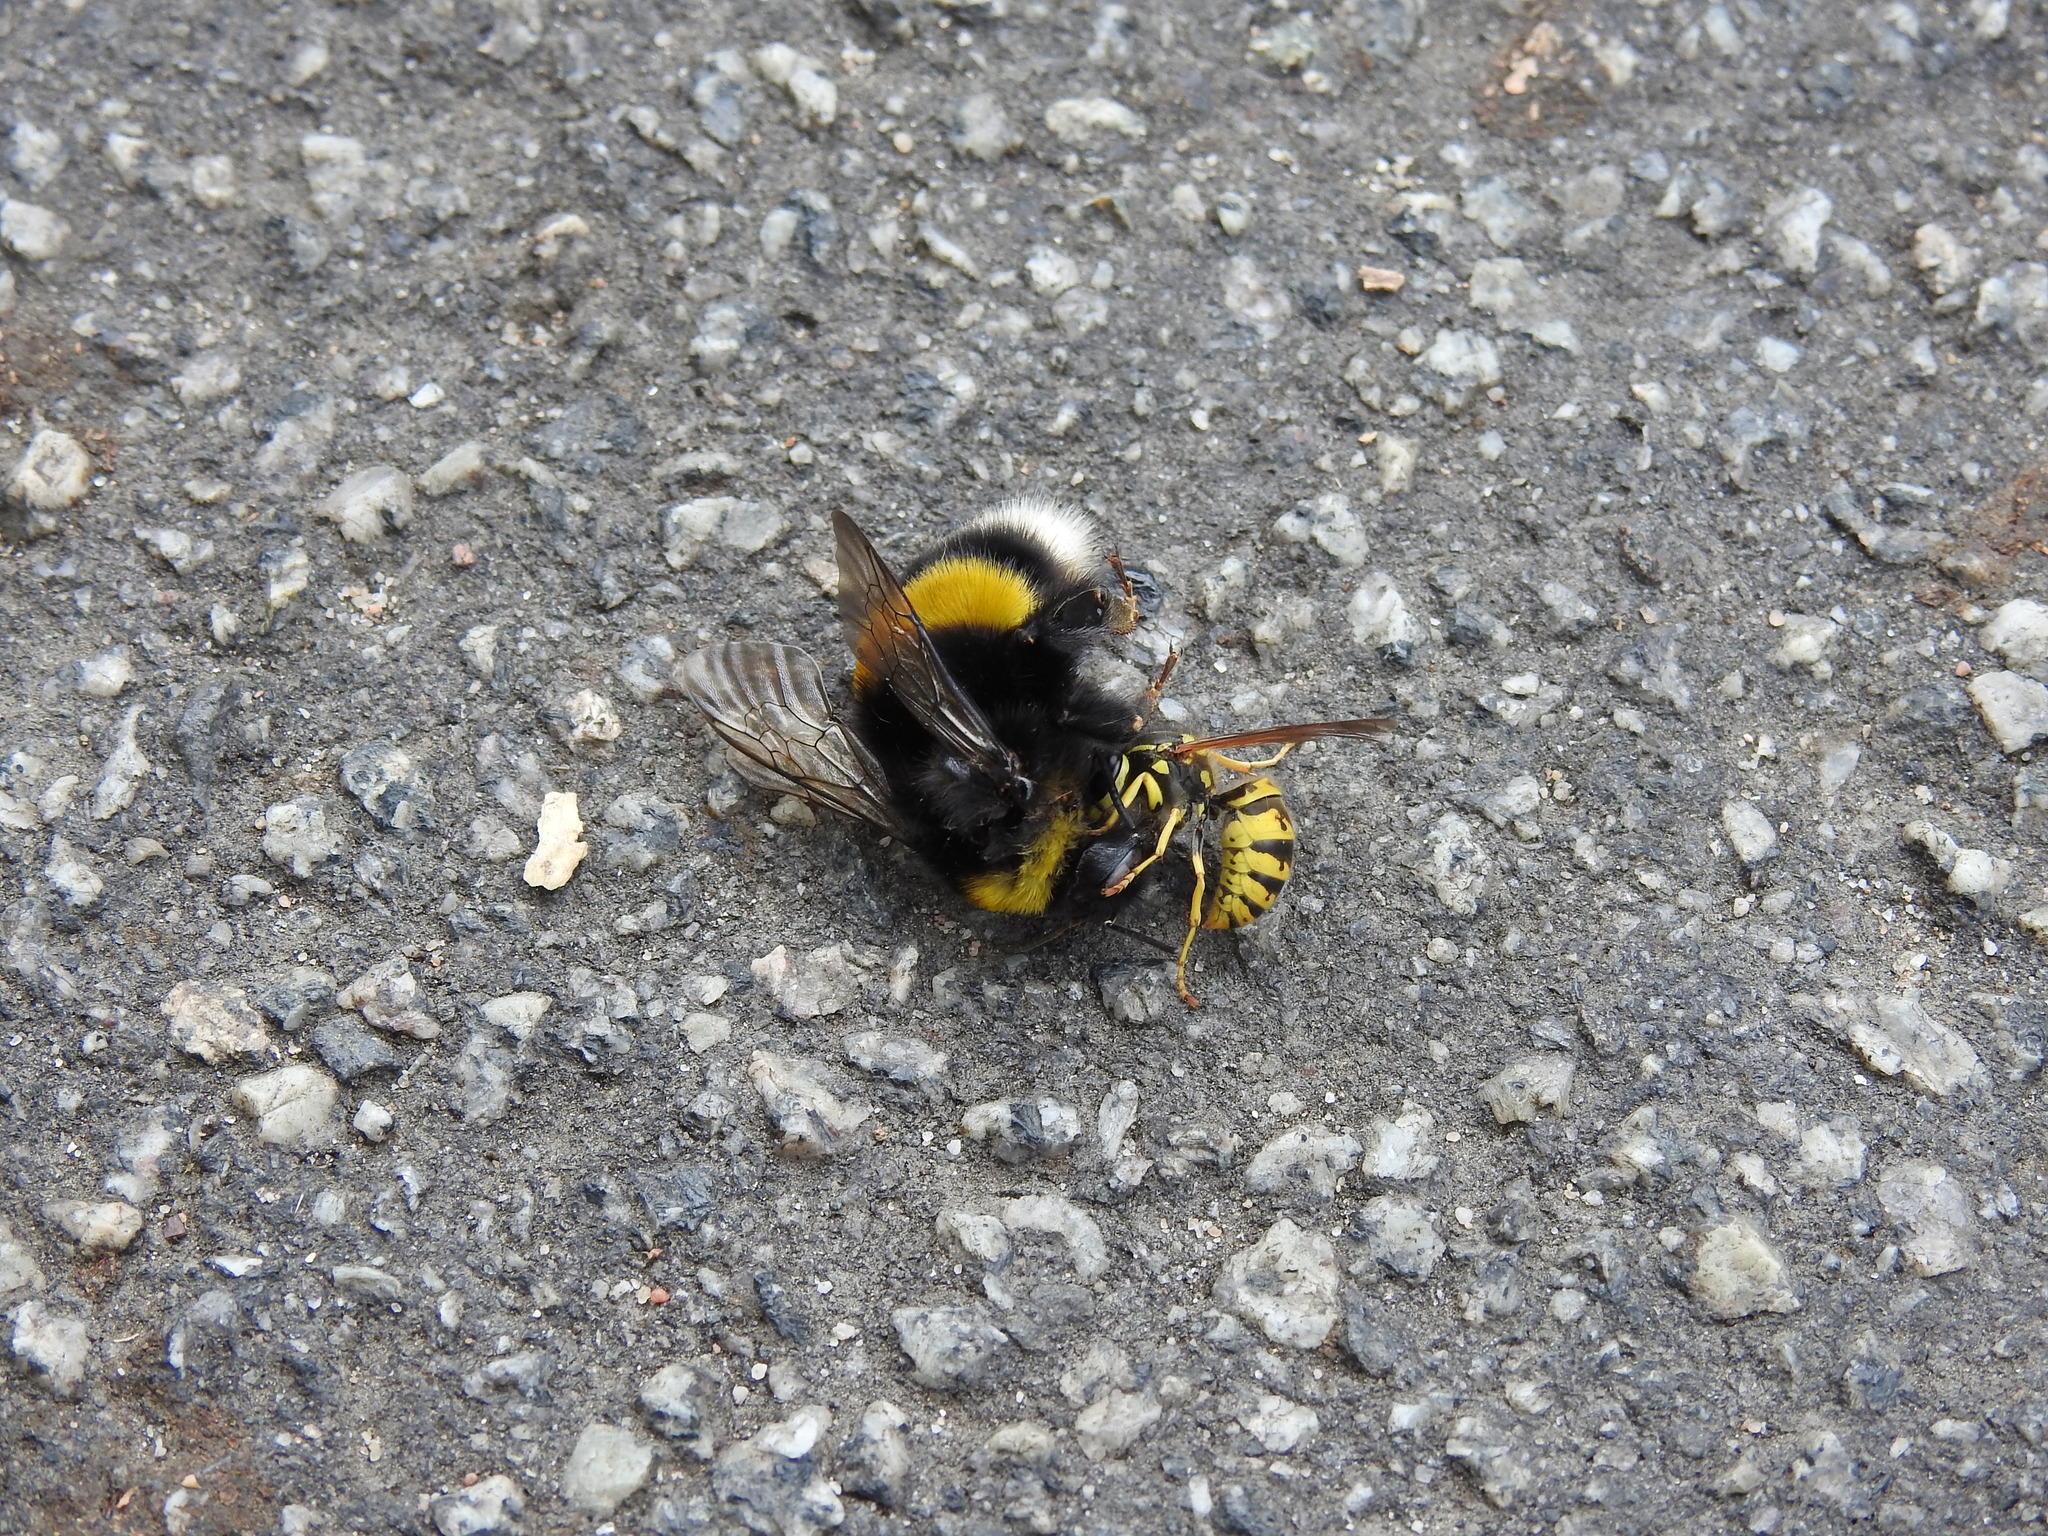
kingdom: Animalia
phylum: Arthropoda
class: Insecta
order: Hymenoptera
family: Apidae
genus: Bombus
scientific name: Bombus terrestris
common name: Buff-tailed bumblebee
